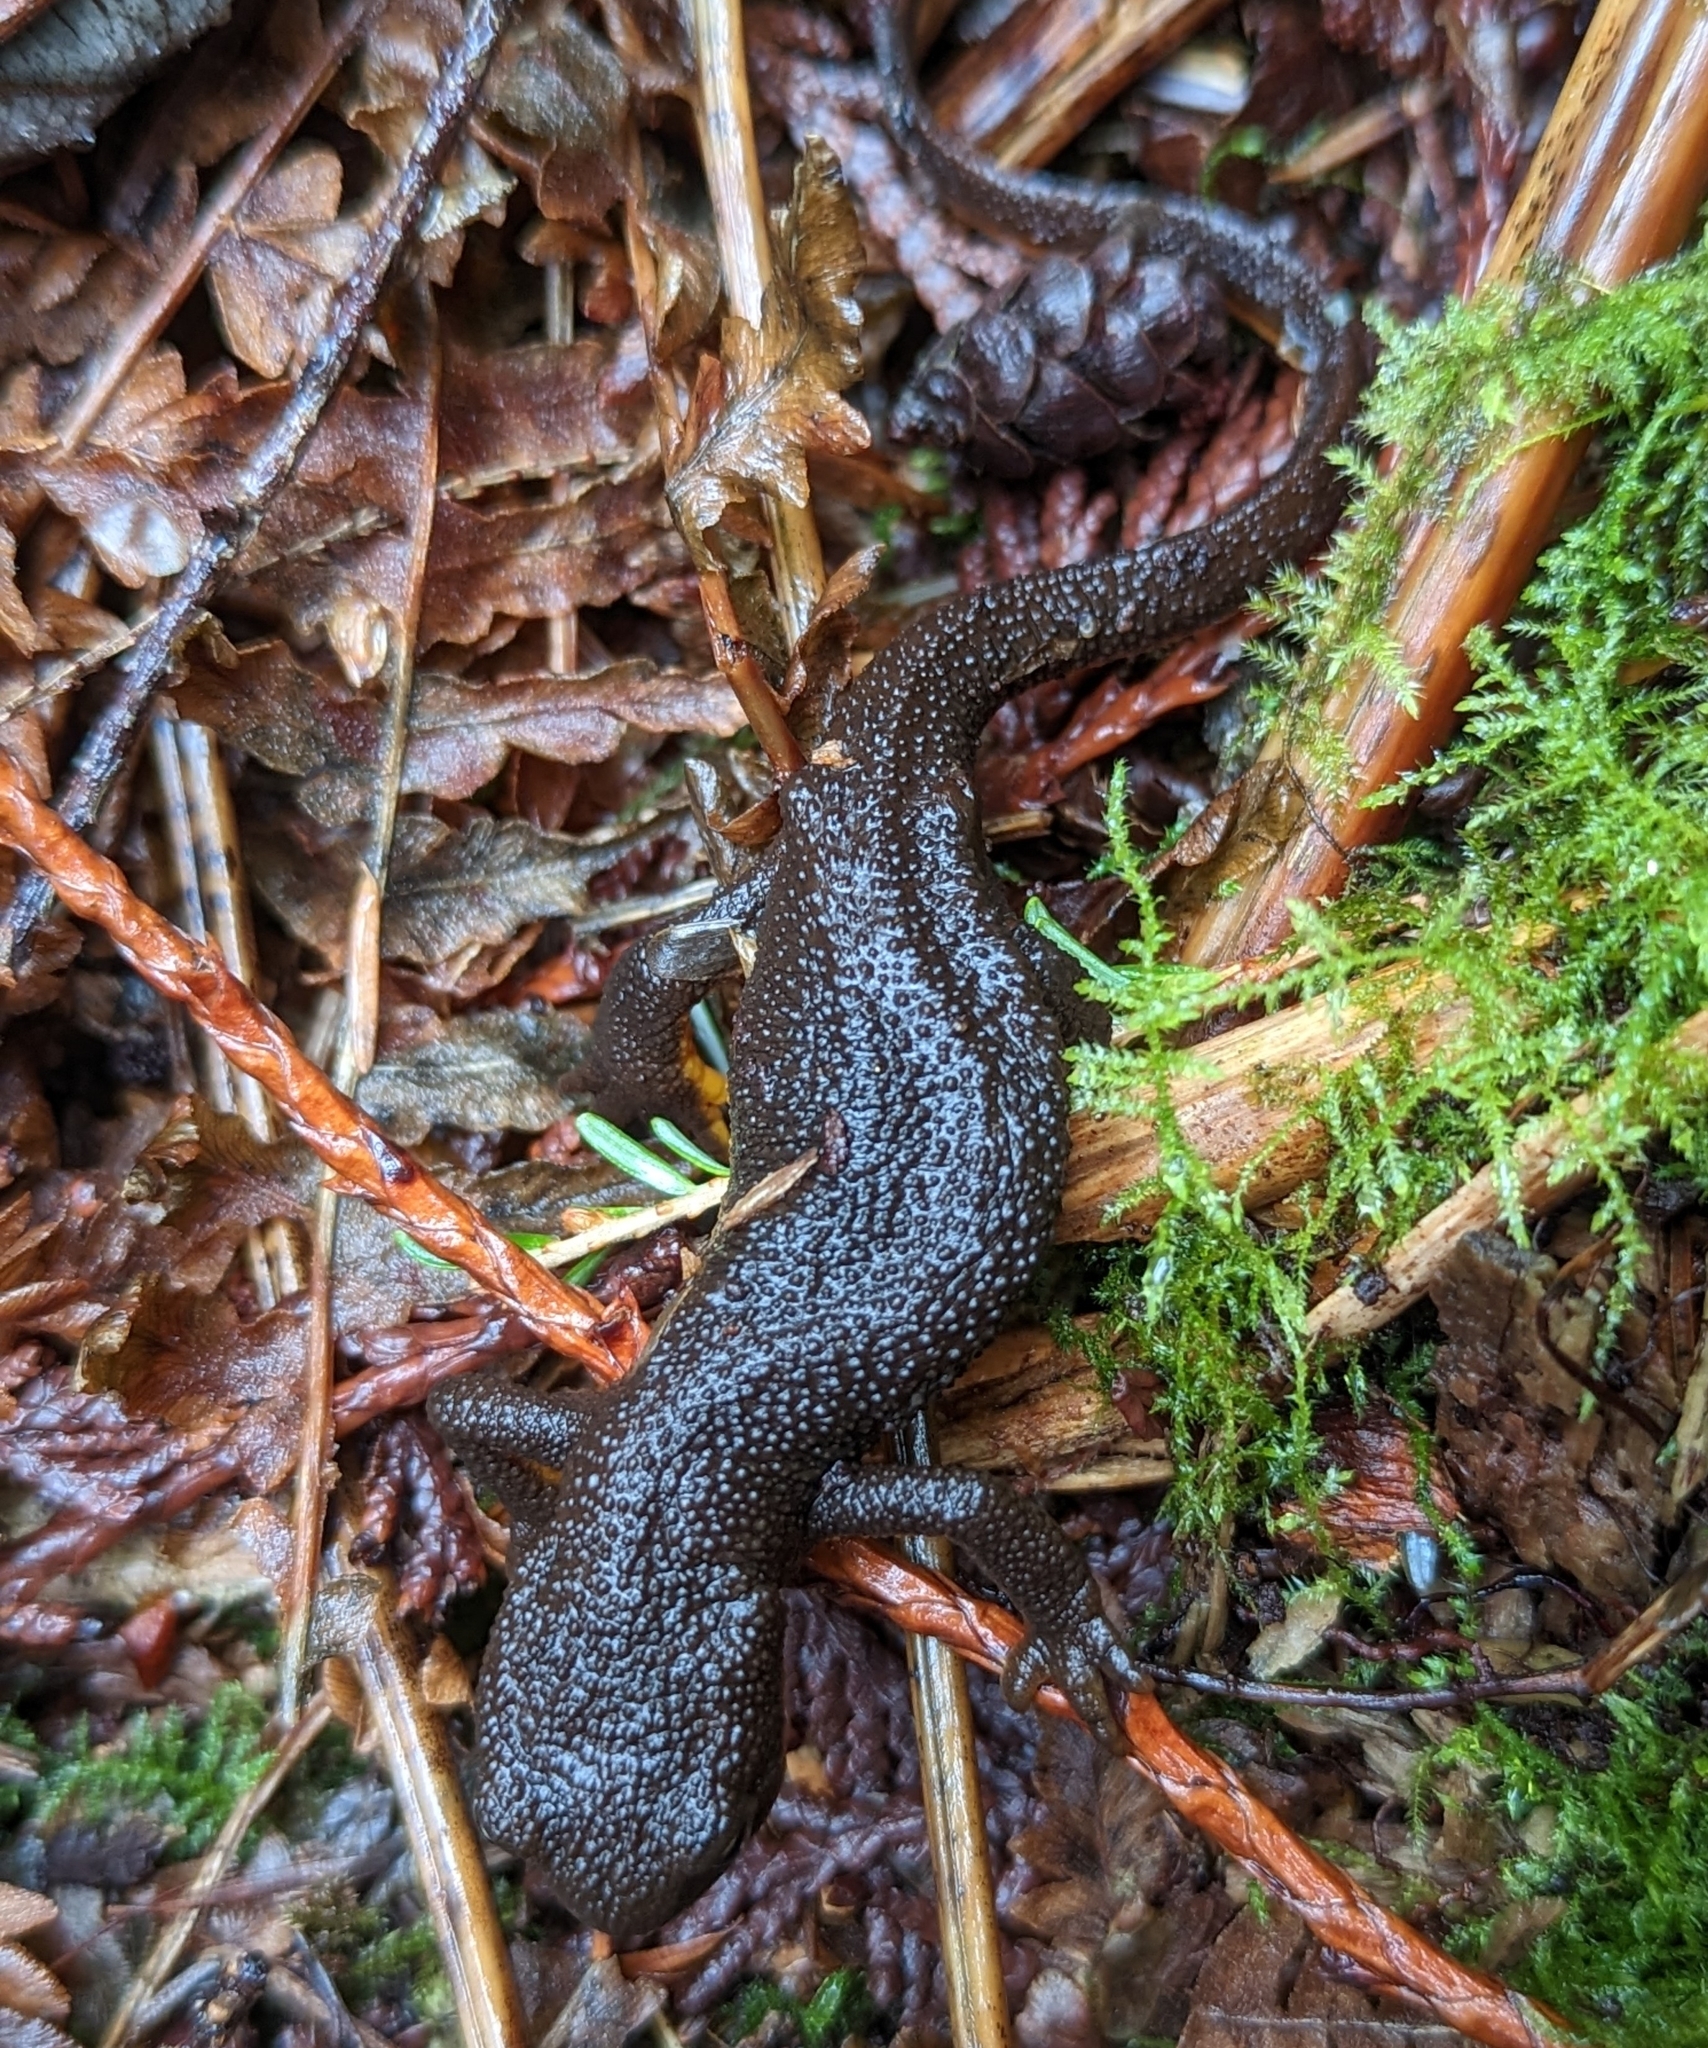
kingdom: Animalia
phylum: Chordata
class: Amphibia
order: Caudata
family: Salamandridae
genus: Taricha
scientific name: Taricha granulosa
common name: Roughskin newt
